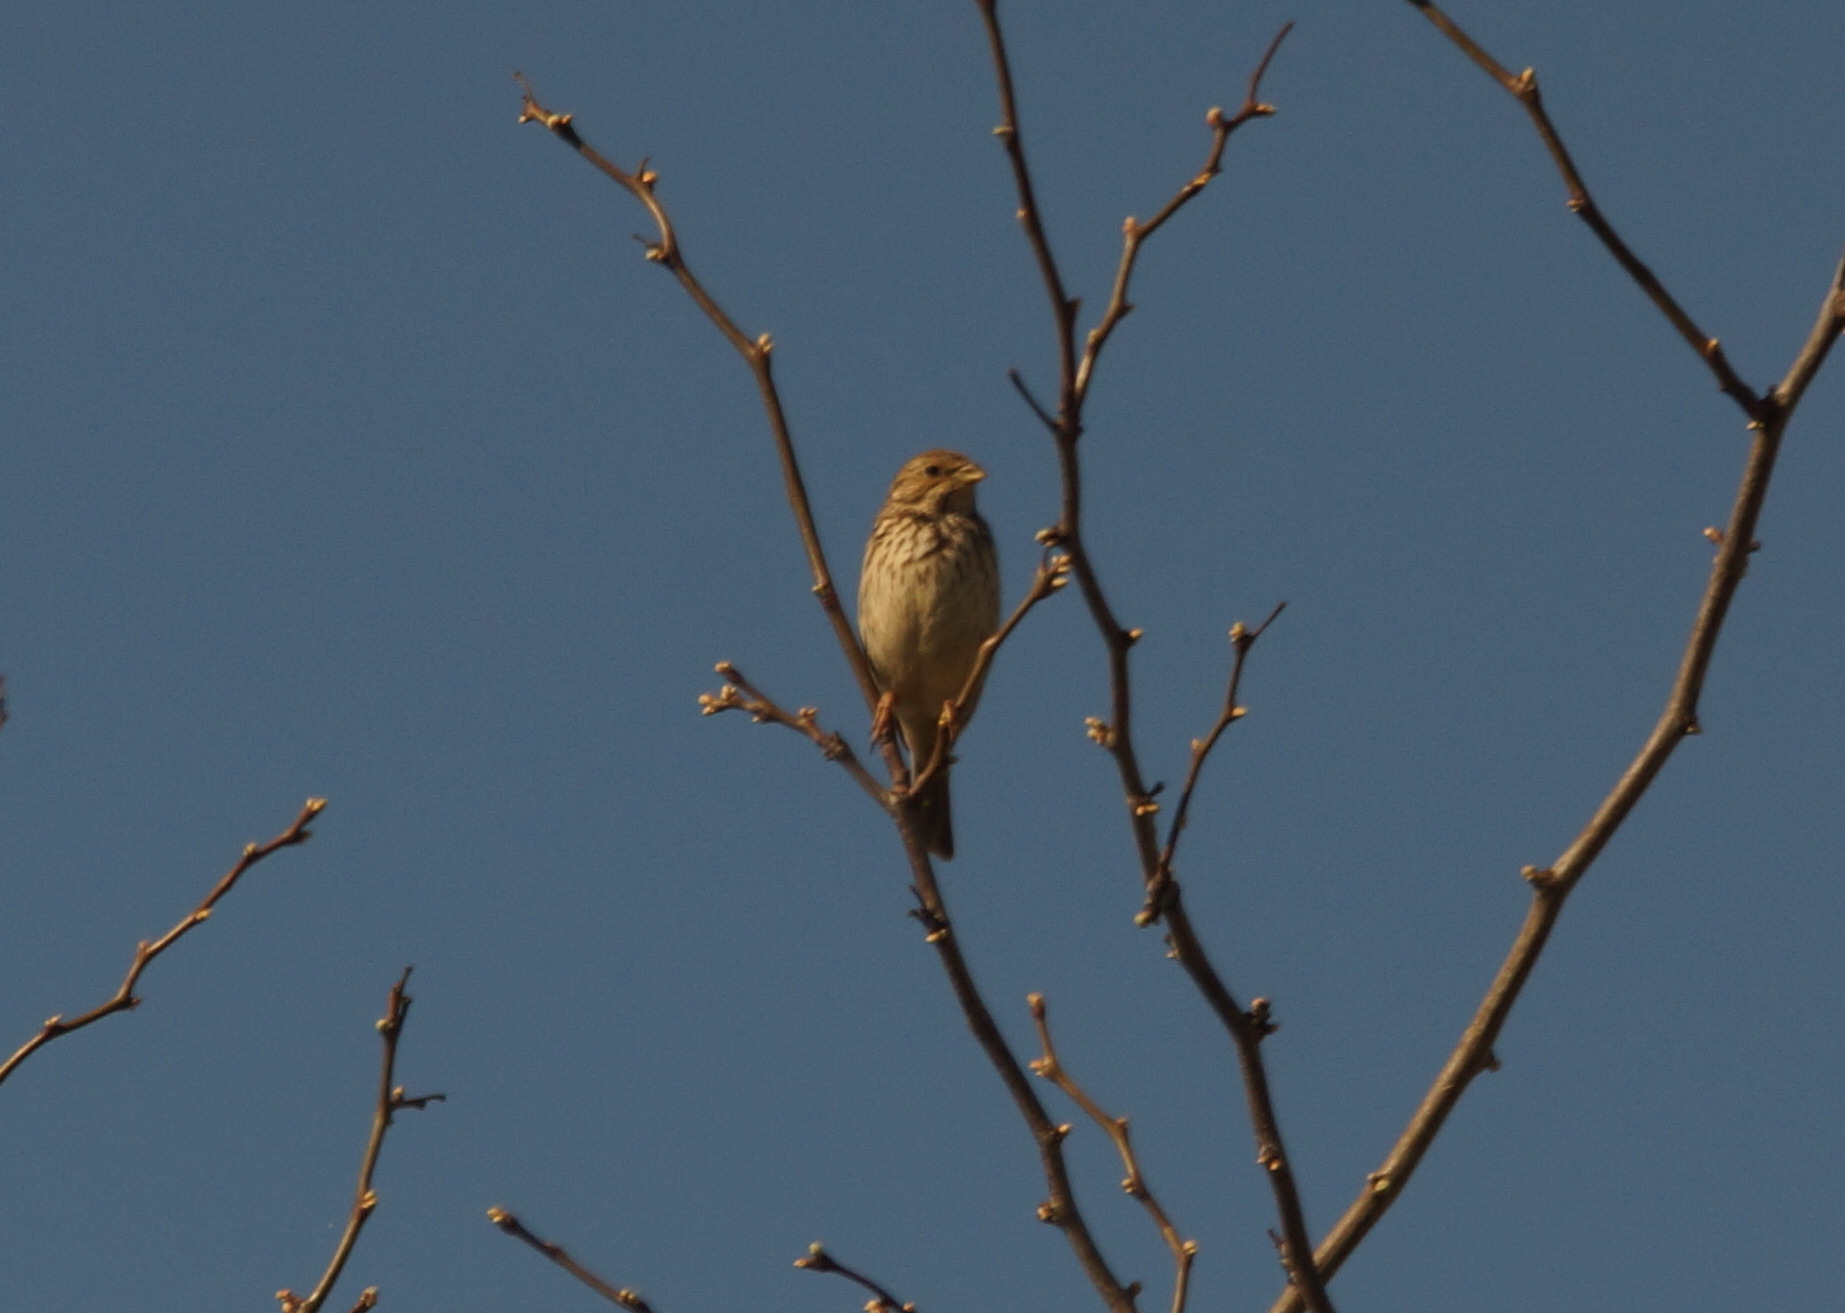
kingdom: Animalia
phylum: Chordata
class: Aves
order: Passeriformes
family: Emberizidae
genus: Emberiza
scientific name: Emberiza calandra
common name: Corn bunting
